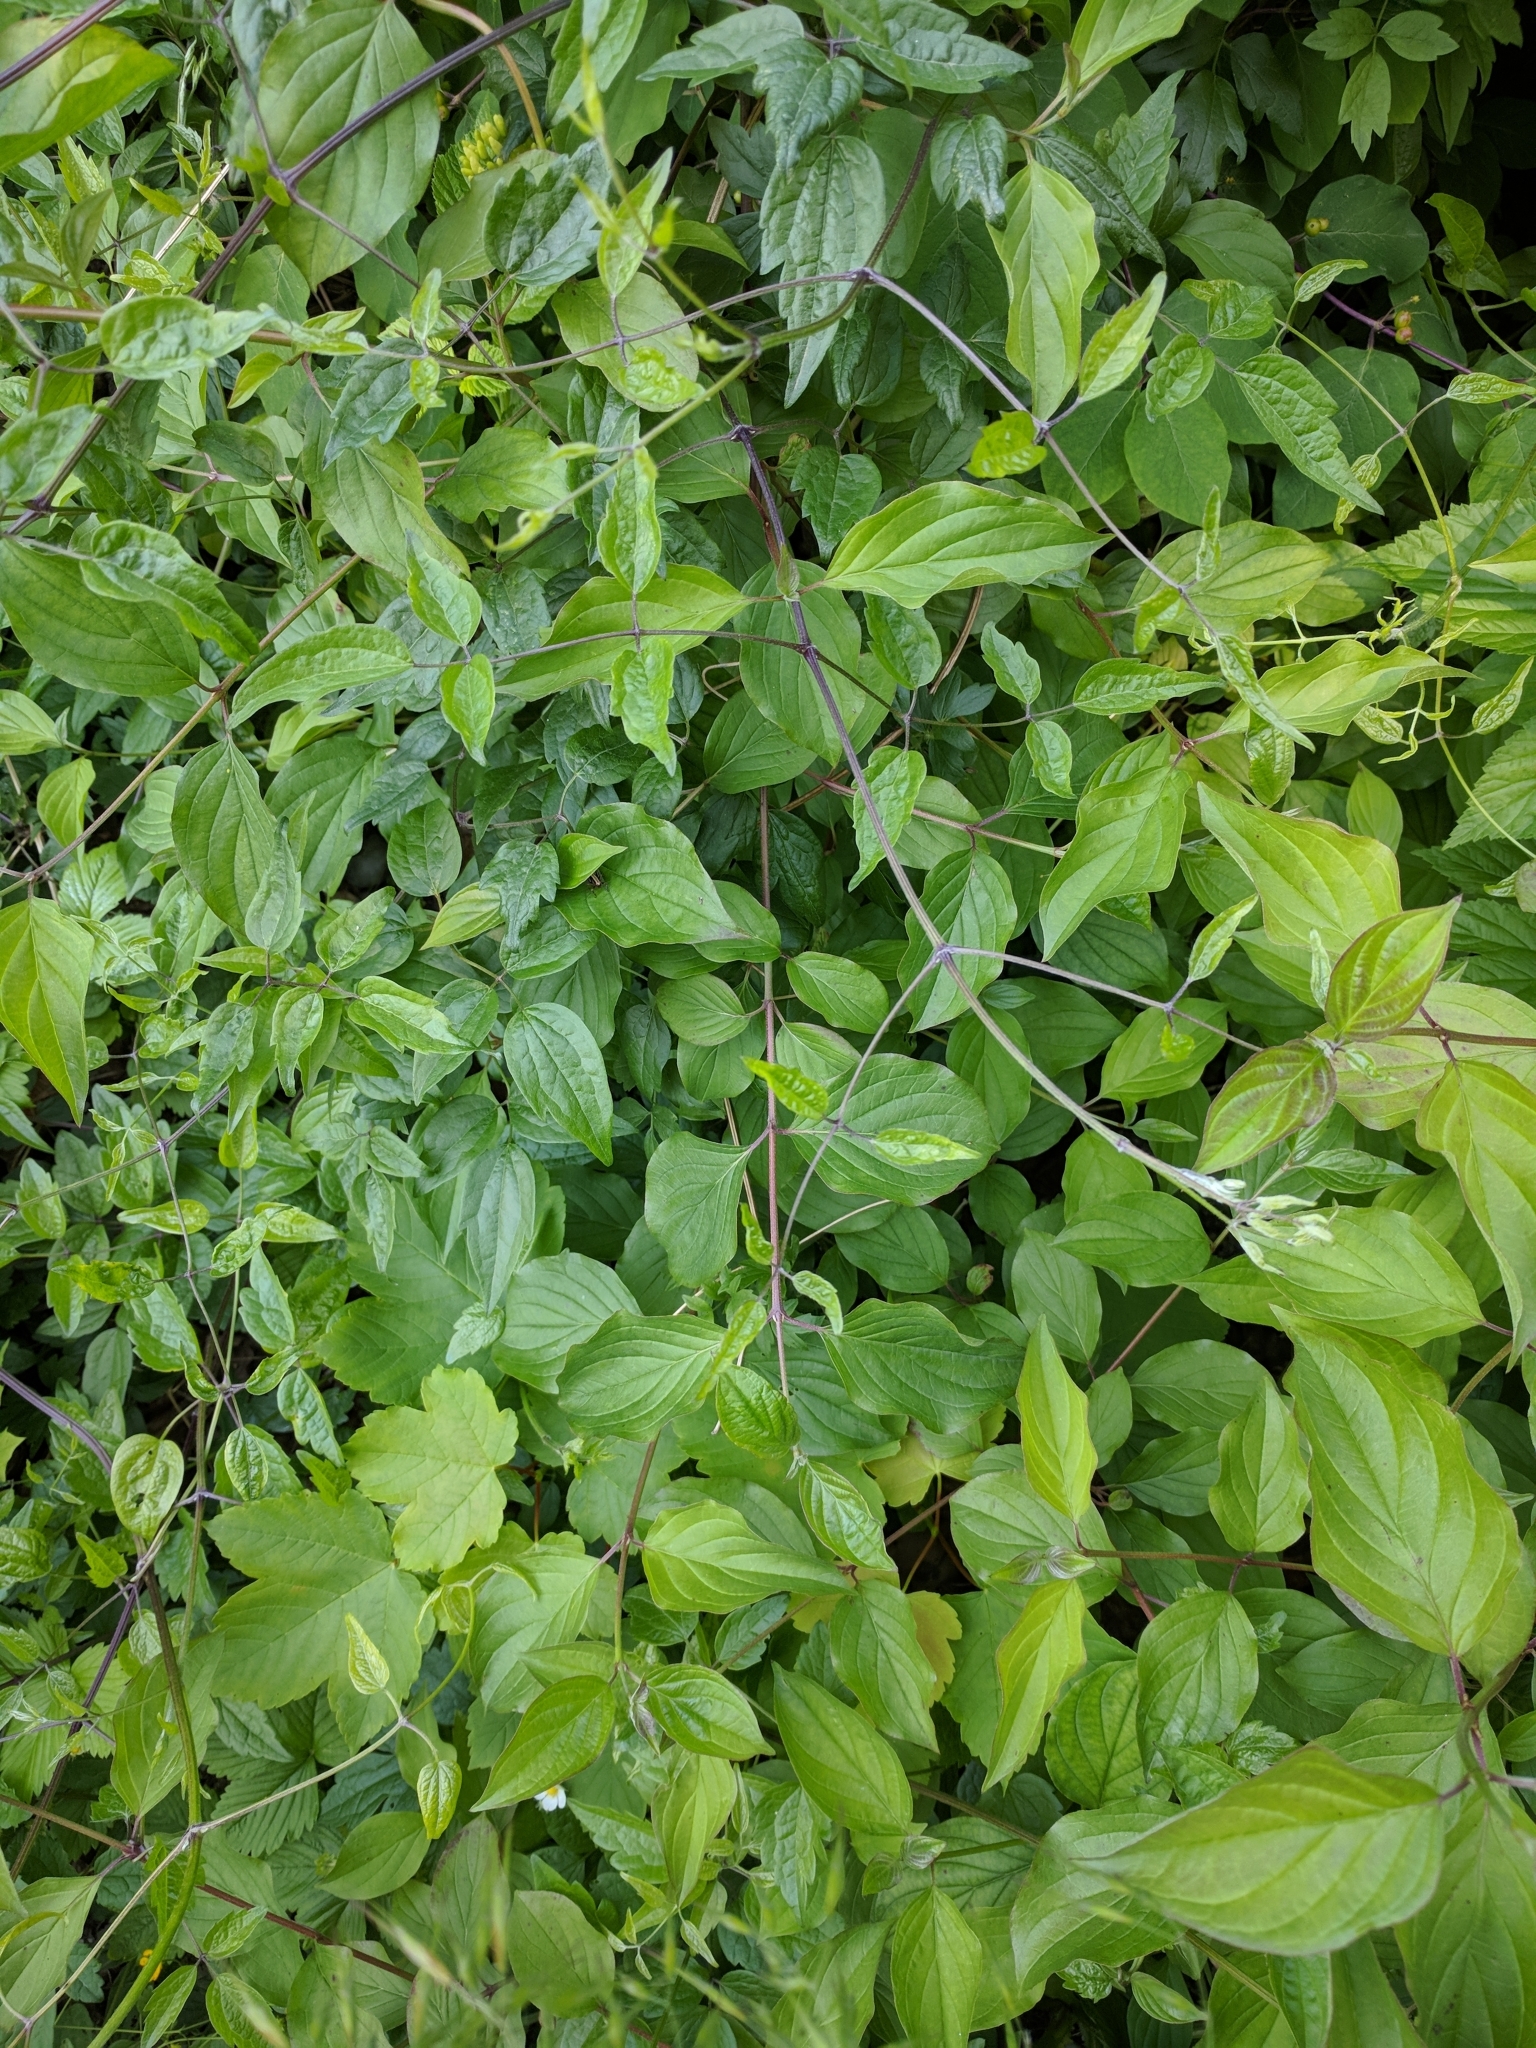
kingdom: Plantae
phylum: Tracheophyta
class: Magnoliopsida
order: Ranunculales
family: Ranunculaceae
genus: Clematis
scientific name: Clematis vitalba
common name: Evergreen clematis
